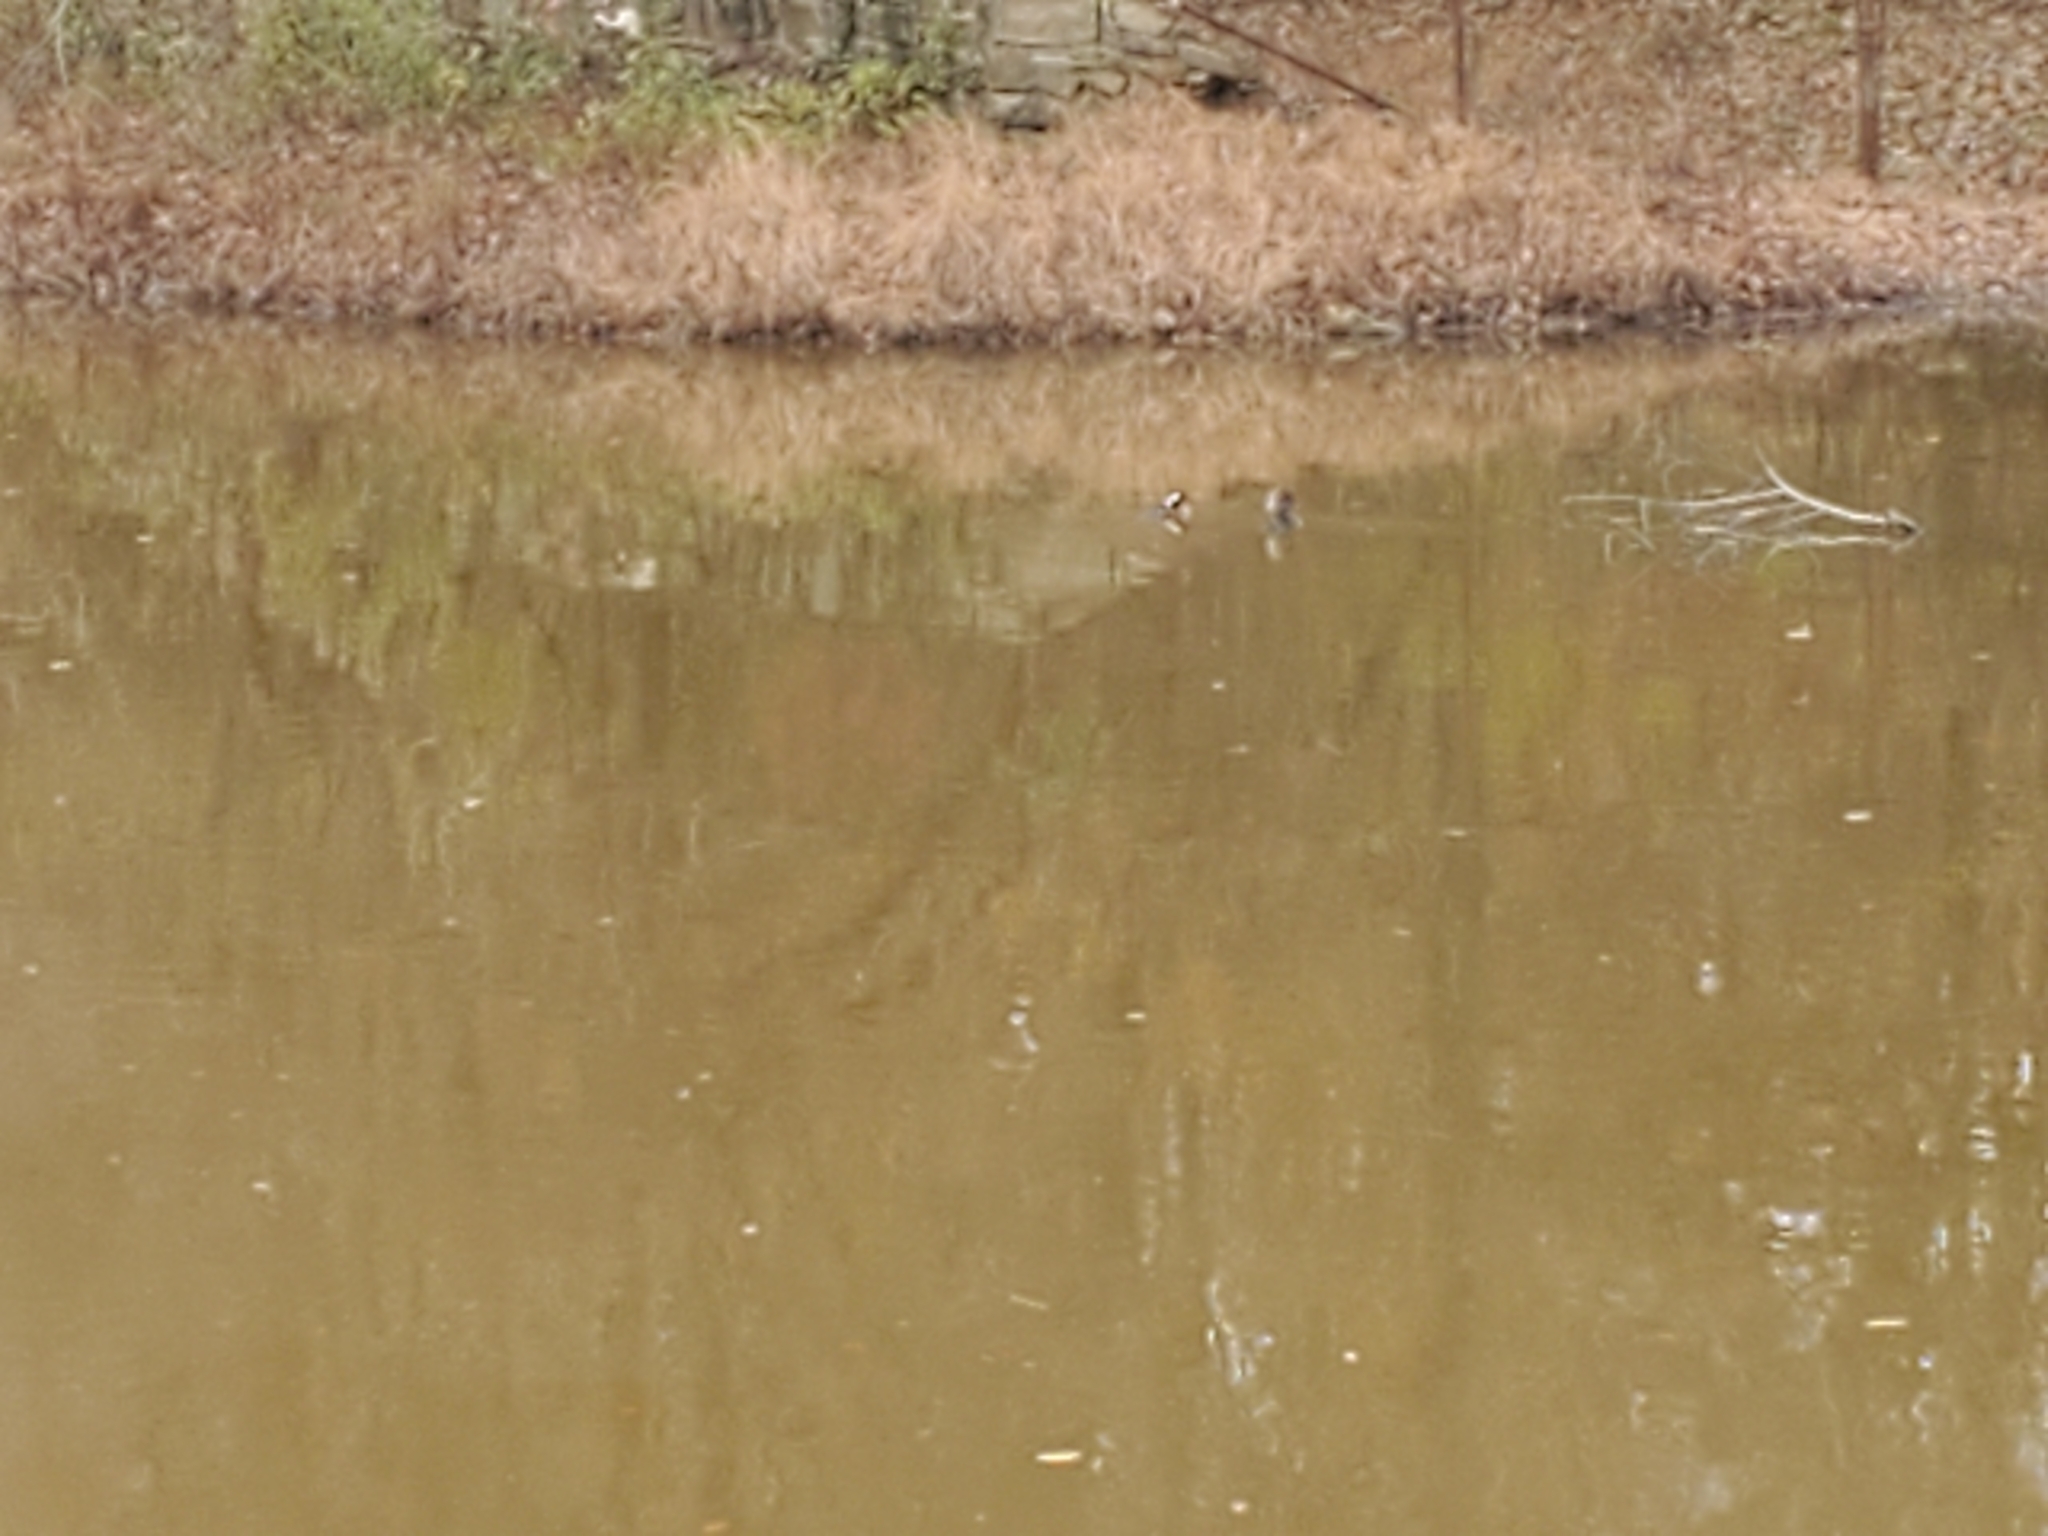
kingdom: Animalia
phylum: Chordata
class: Aves
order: Anseriformes
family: Anatidae
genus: Lophodytes
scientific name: Lophodytes cucullatus
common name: Hooded merganser
